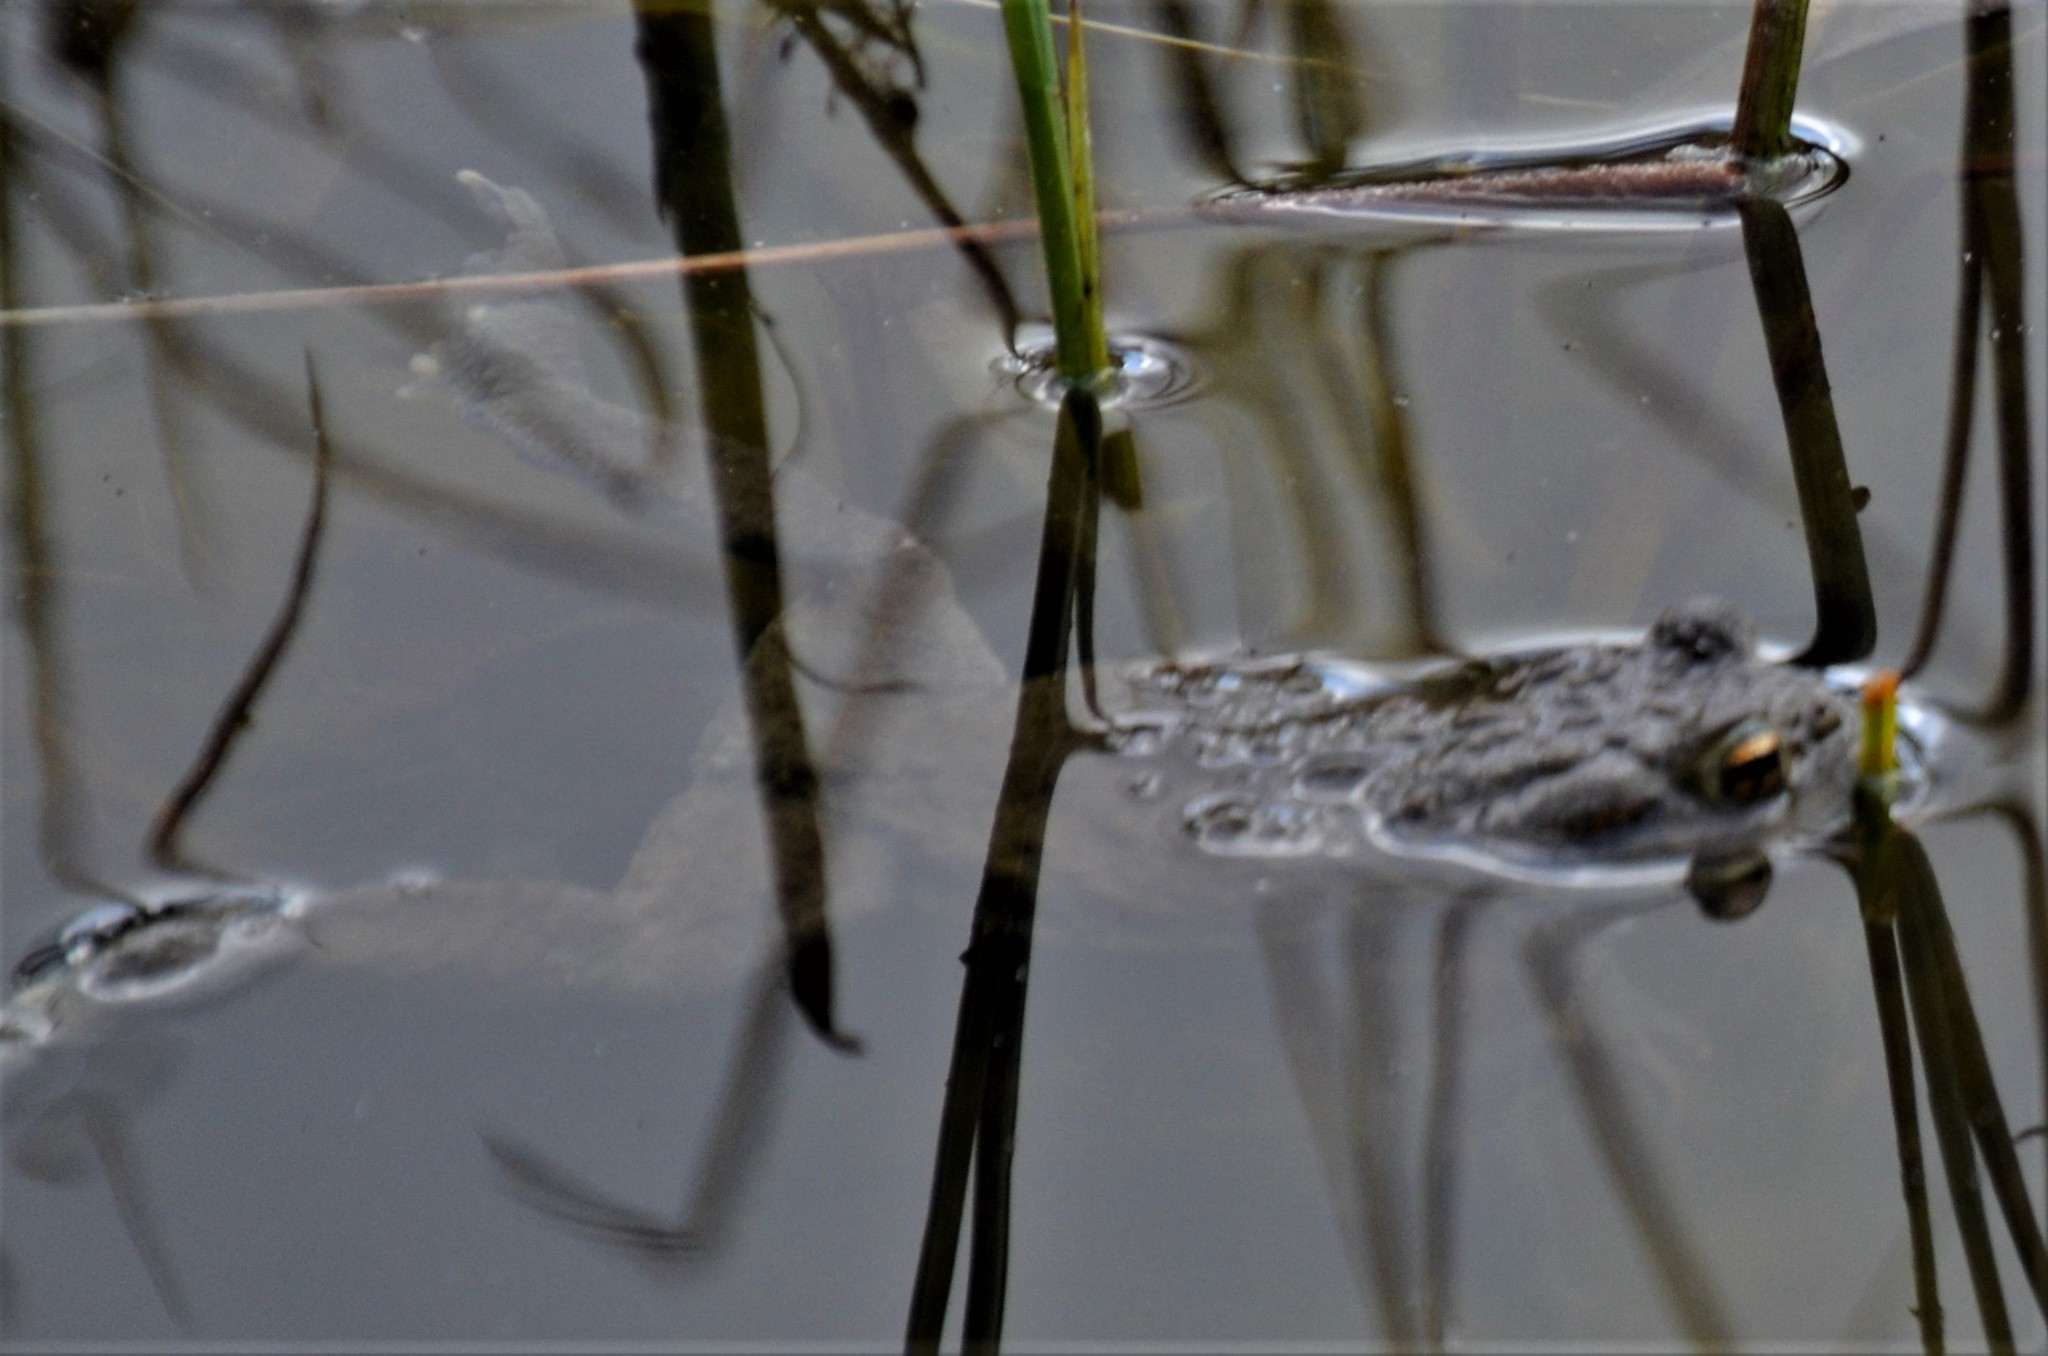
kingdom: Animalia
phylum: Chordata
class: Amphibia
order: Anura
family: Bufonidae
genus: Bufo
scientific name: Bufo bufo
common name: Common toad
